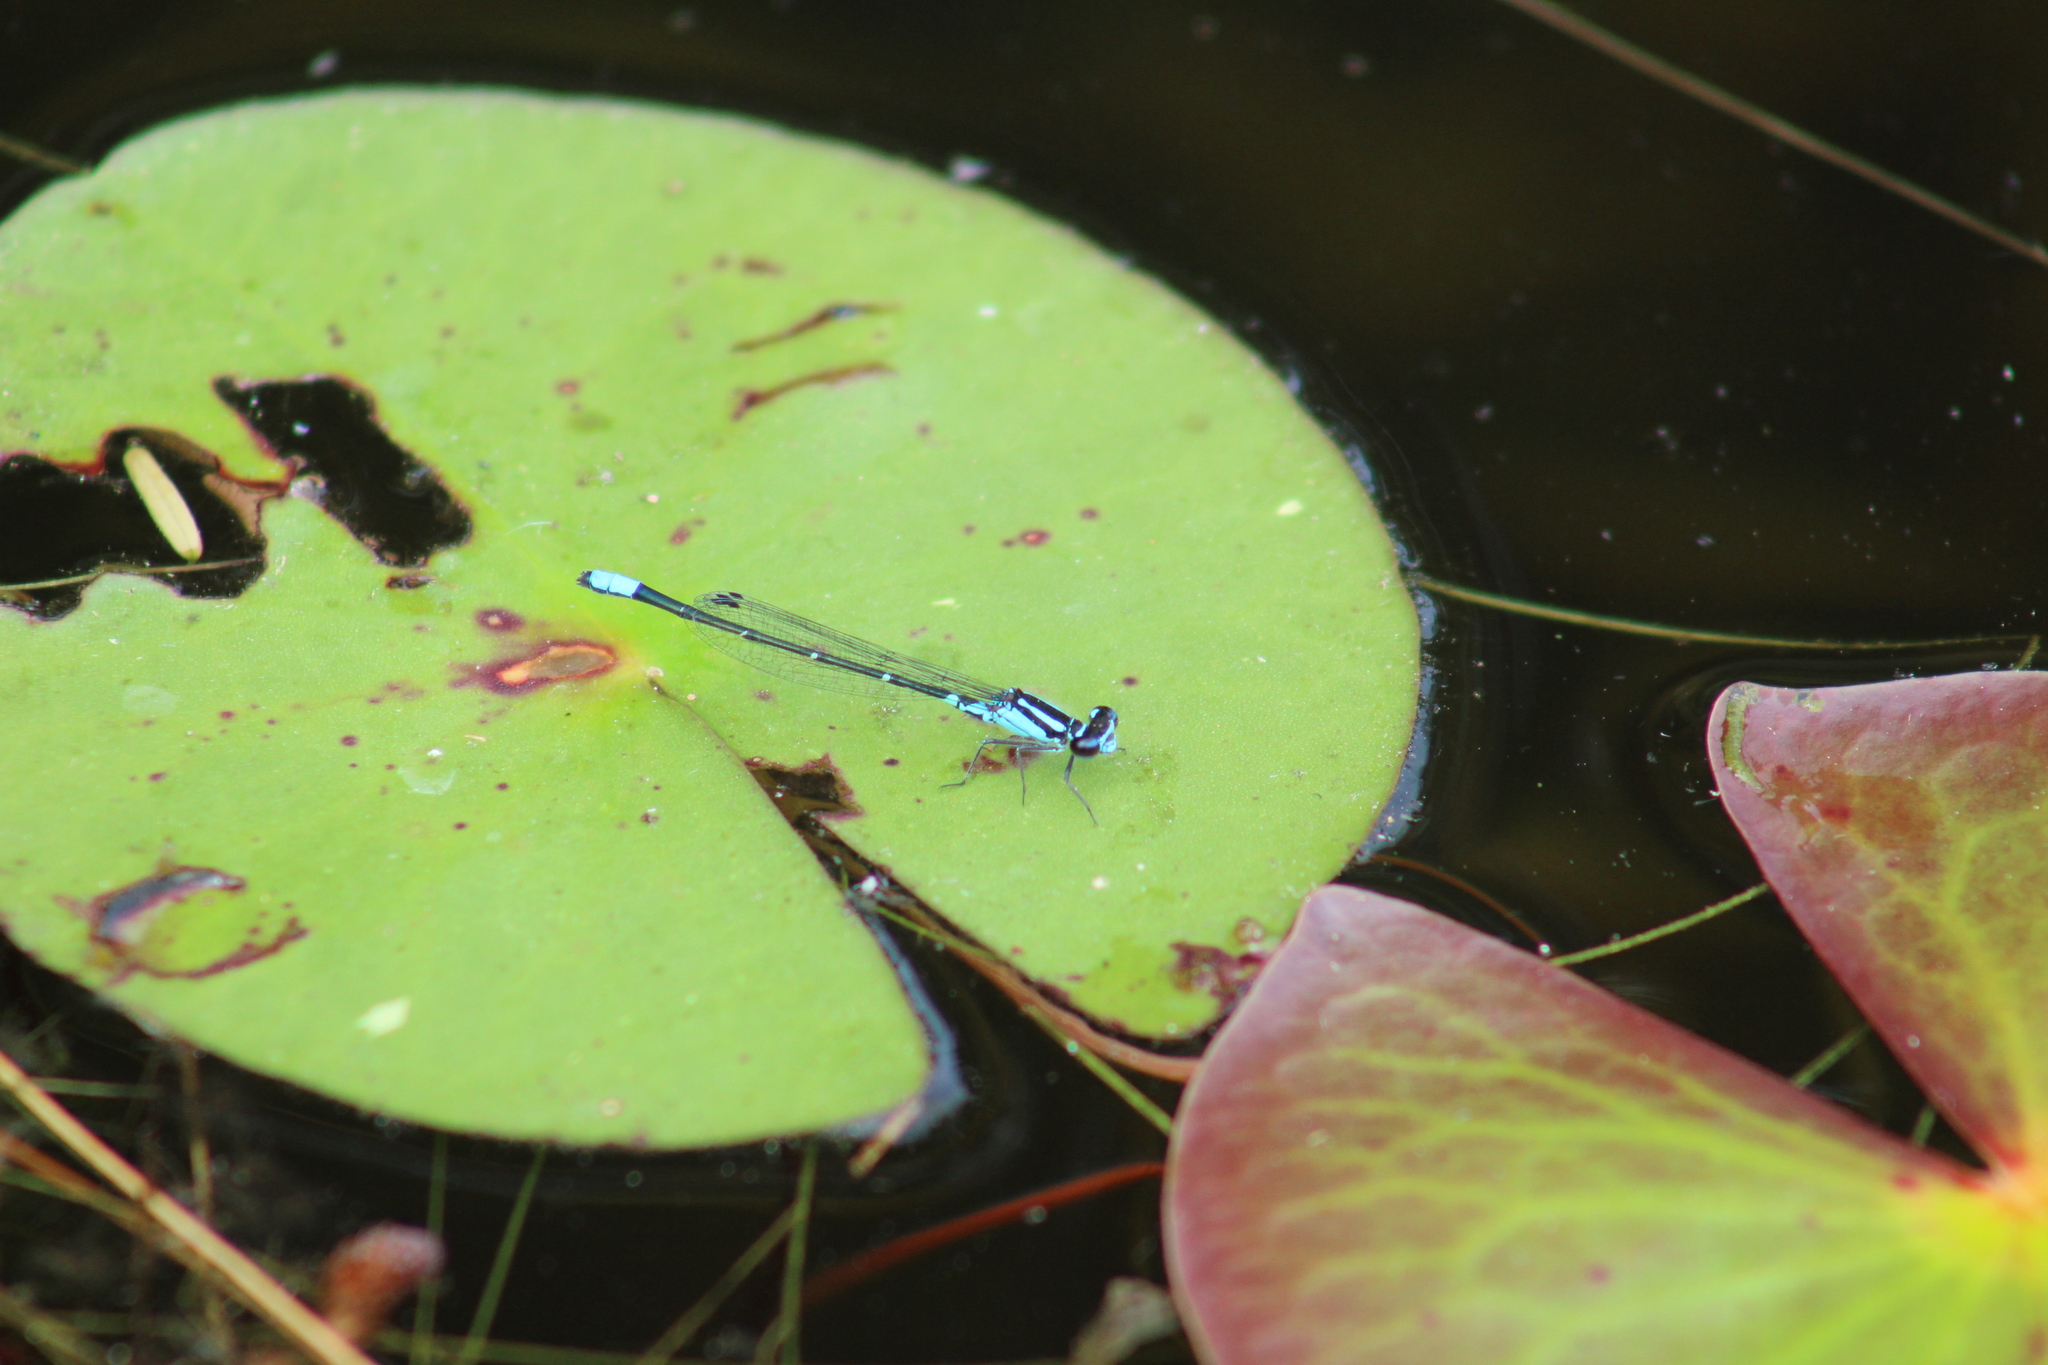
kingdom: Animalia
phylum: Arthropoda
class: Insecta
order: Odonata
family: Coenagrionidae
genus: Enallagma
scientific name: Enallagma geminatum
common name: Skimming bluet
